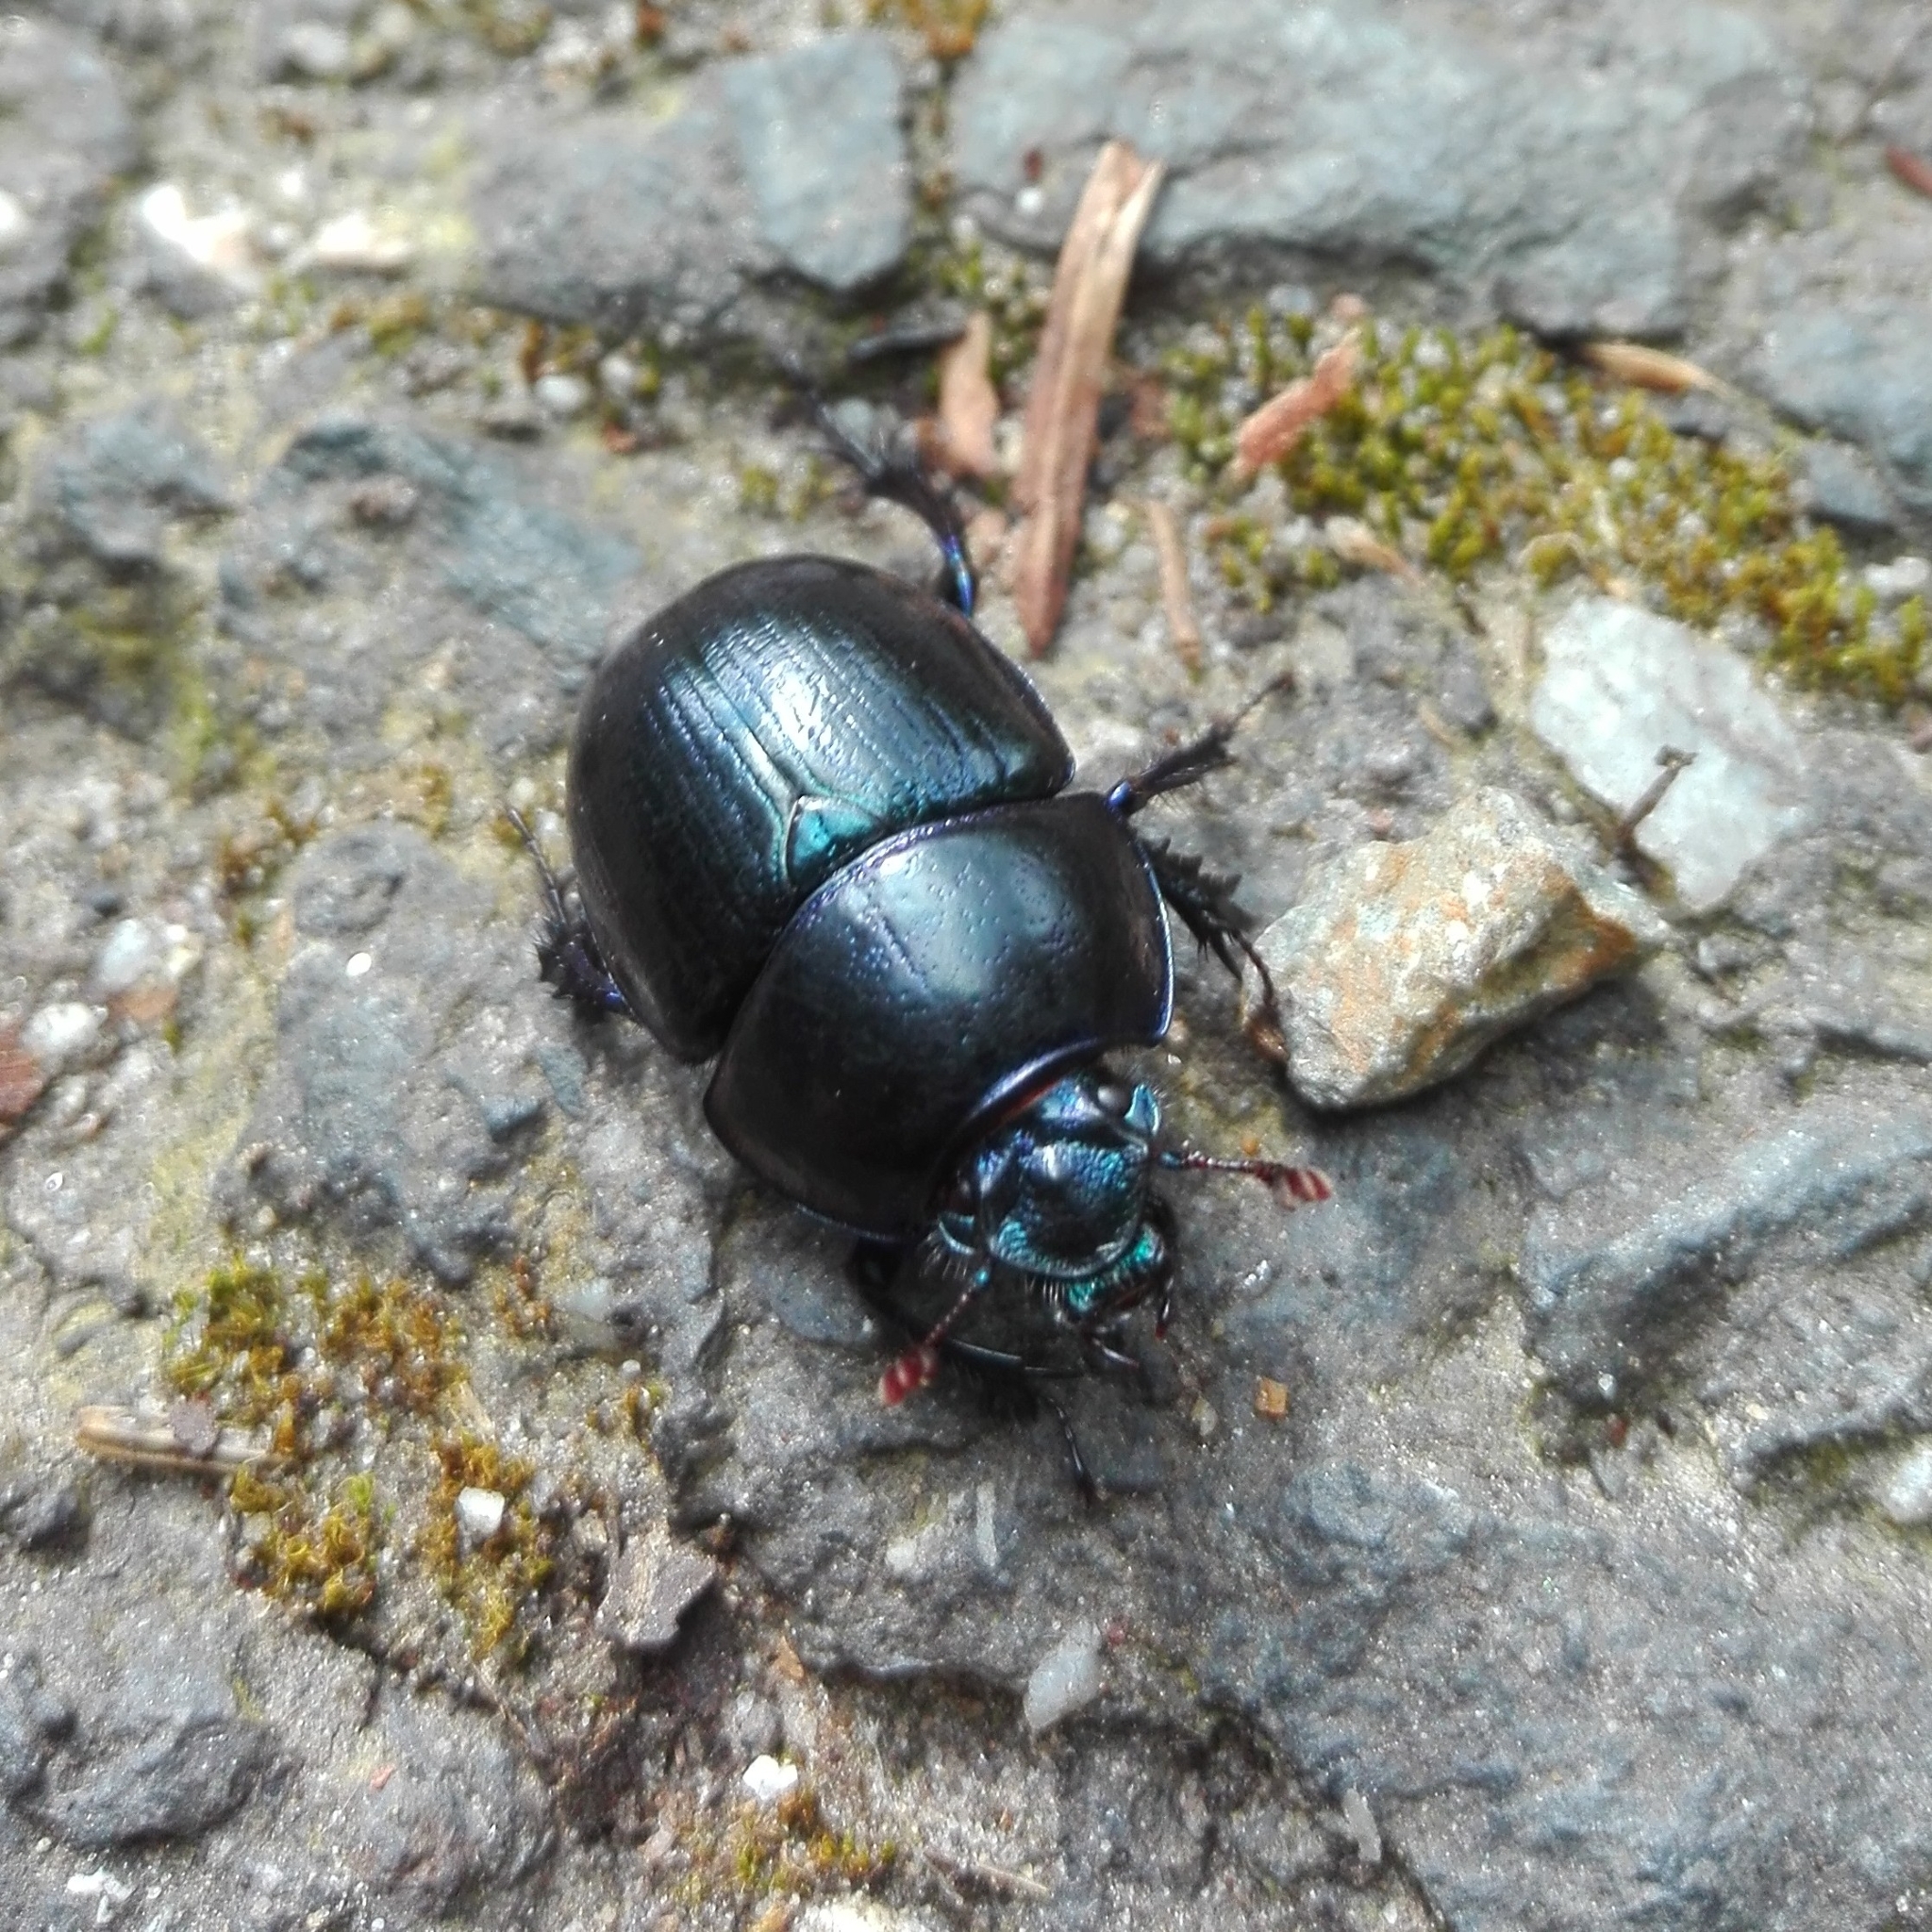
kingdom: Animalia
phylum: Arthropoda
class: Insecta
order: Coleoptera
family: Geotrupidae
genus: Anoplotrupes
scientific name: Anoplotrupes stercorosus
